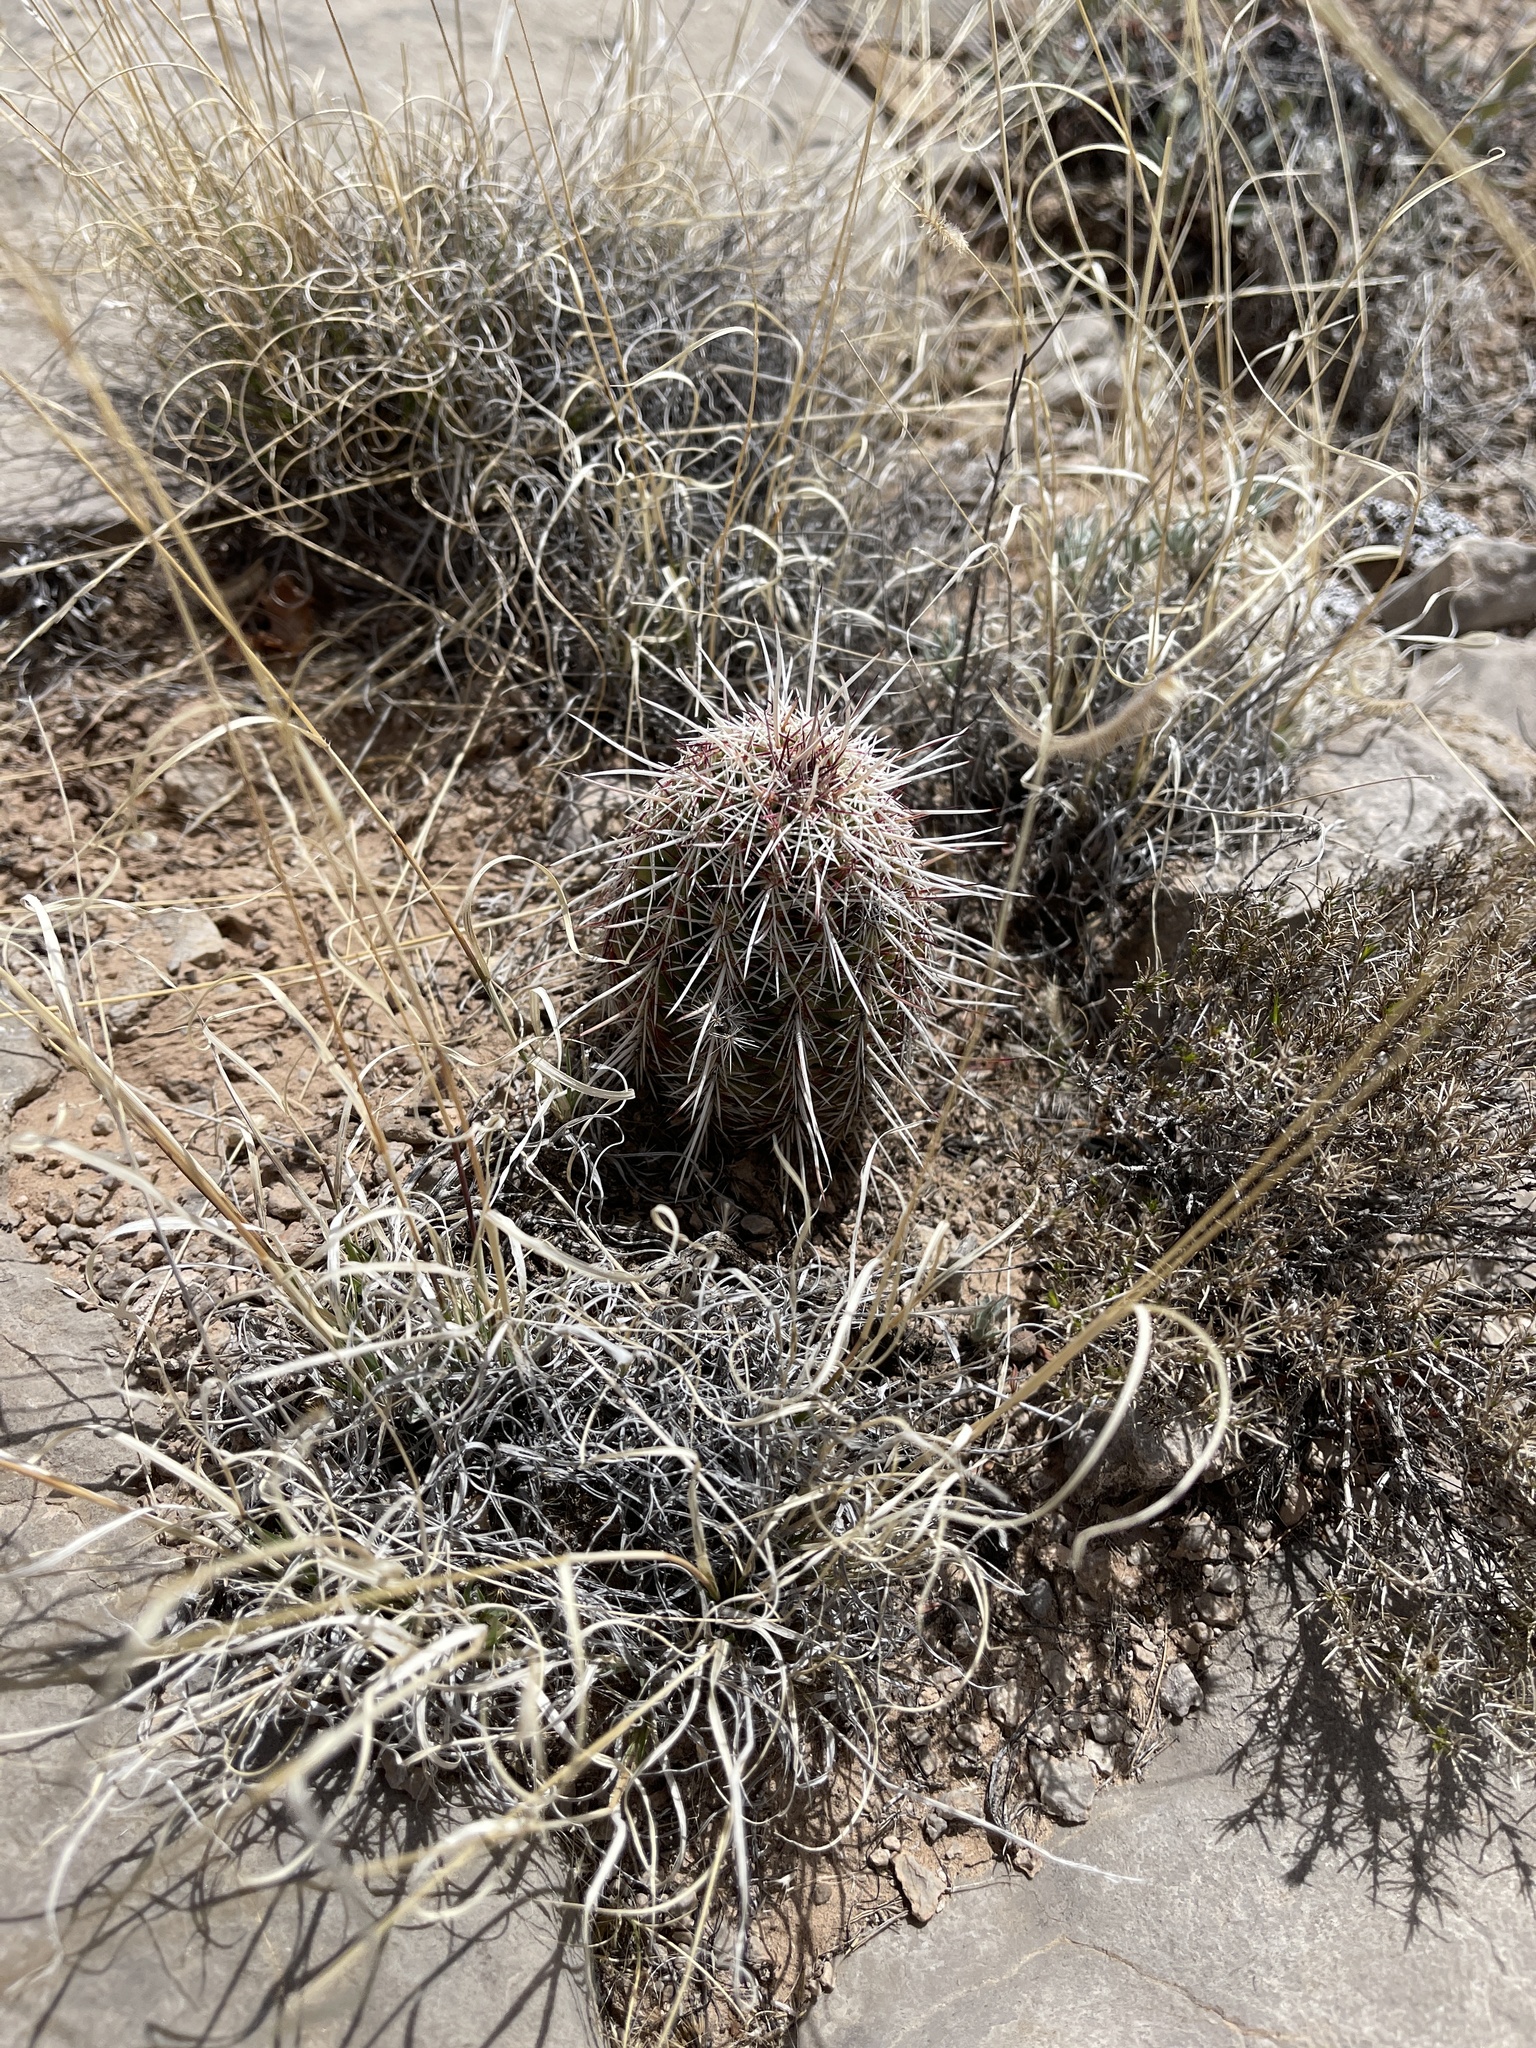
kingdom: Plantae
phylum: Tracheophyta
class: Magnoliopsida
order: Caryophyllales
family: Cactaceae
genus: Echinocereus
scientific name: Echinocereus viridiflorus
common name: Nylon hedgehog cactus
